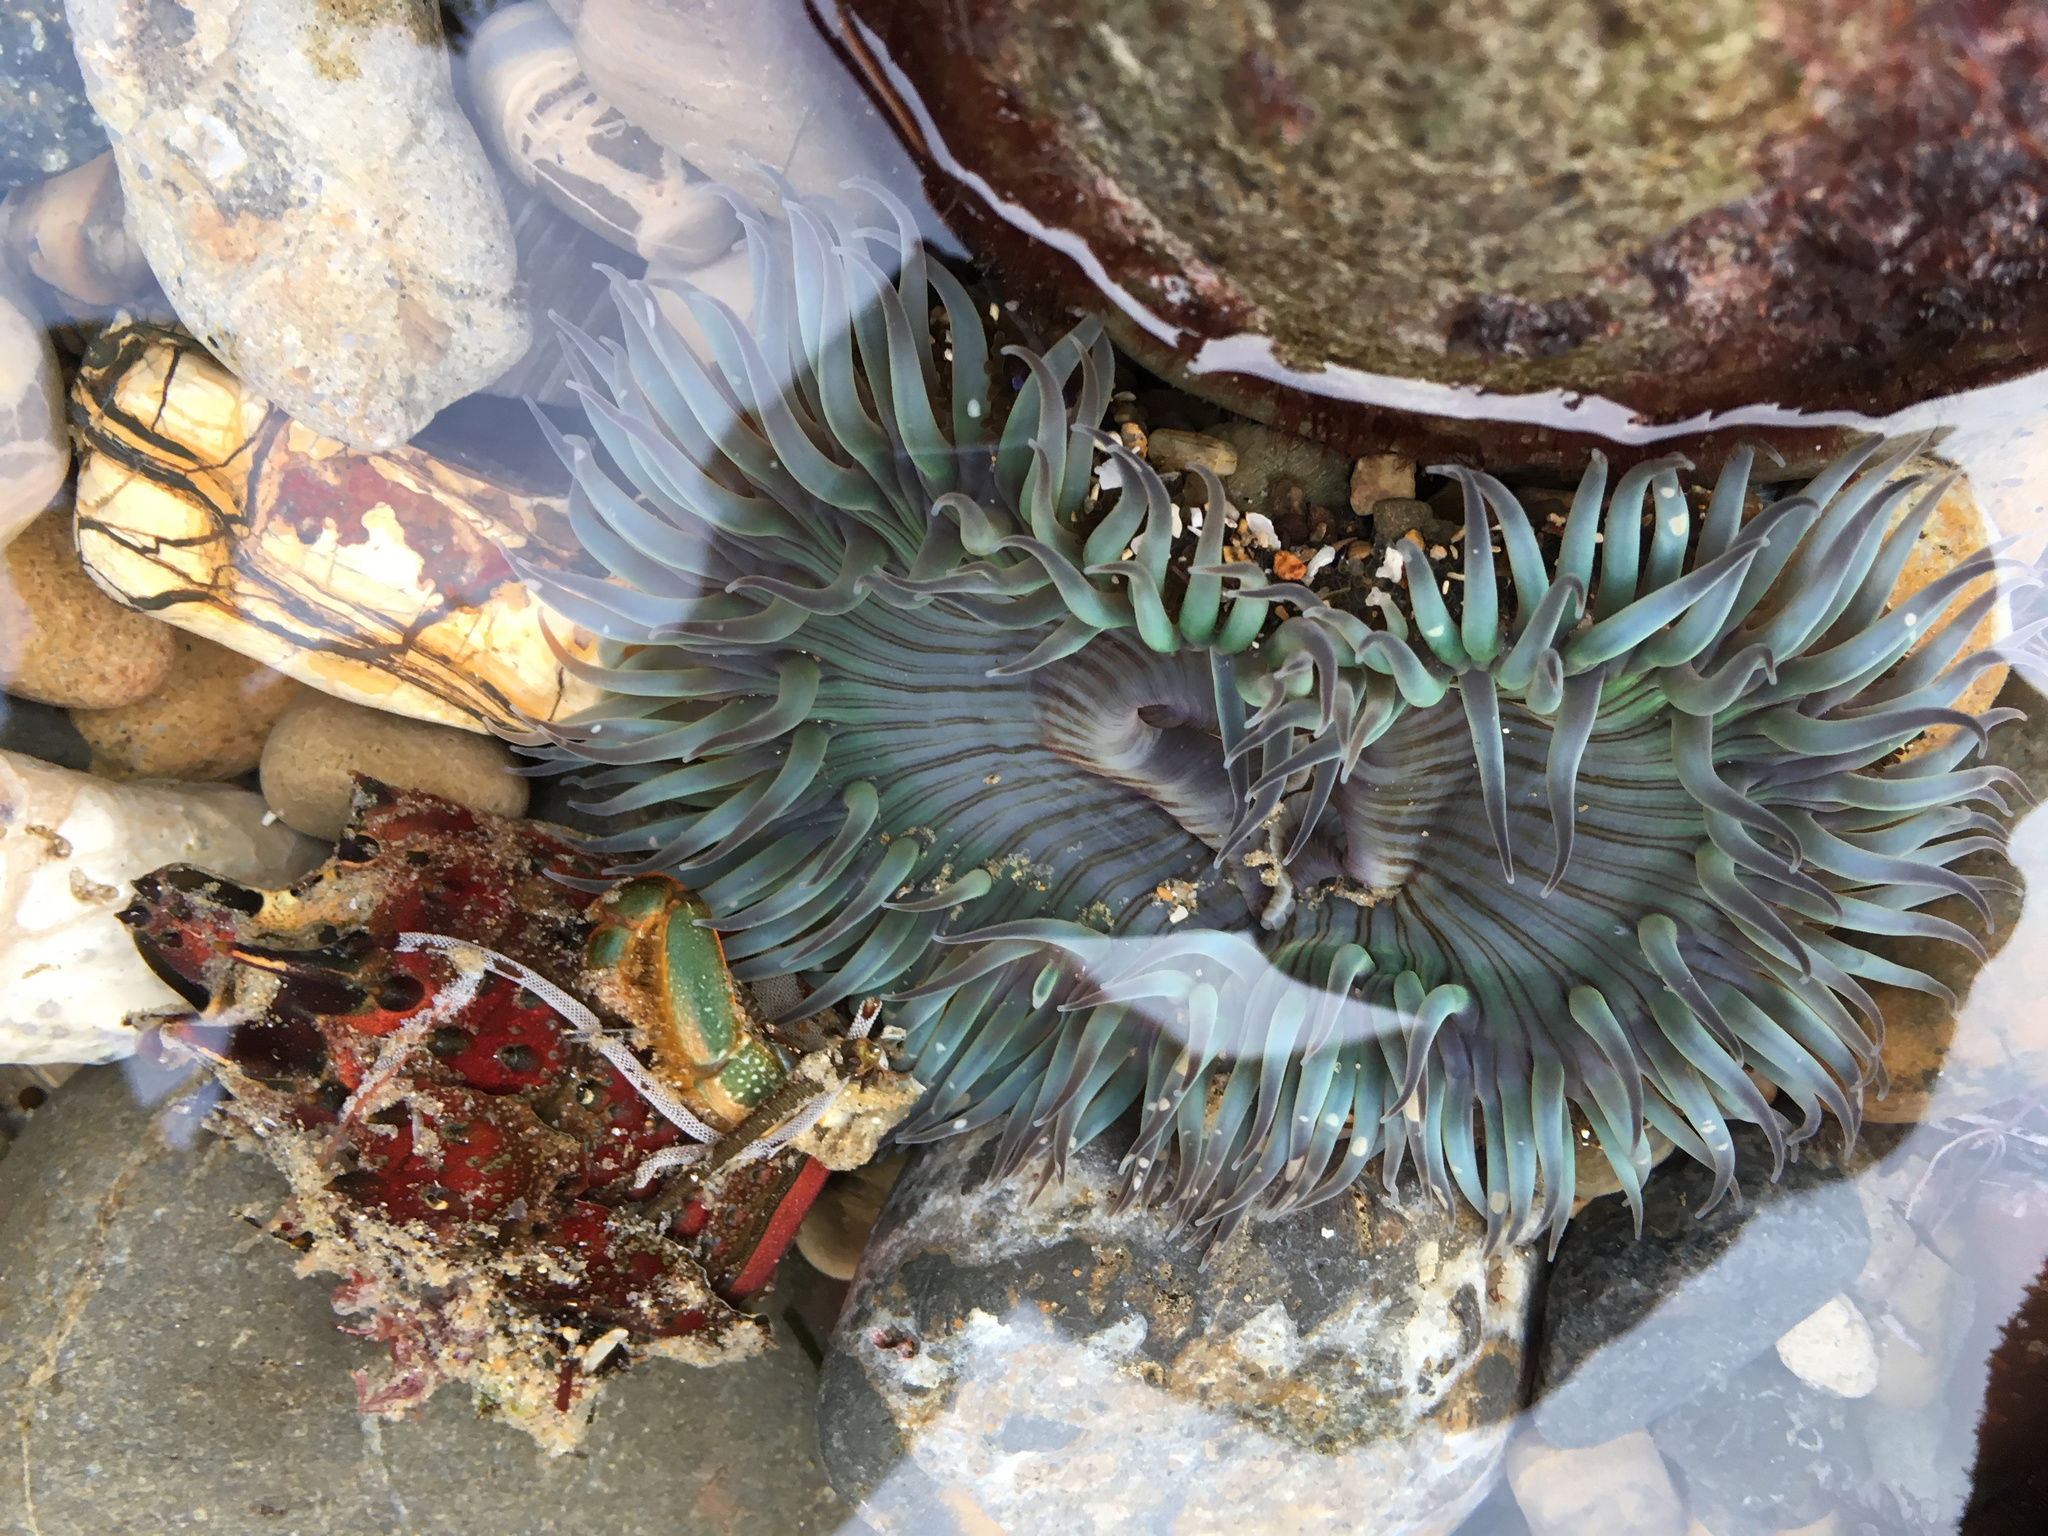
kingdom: Animalia
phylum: Cnidaria
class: Anthozoa
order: Actiniaria
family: Actiniidae
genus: Anthopleura
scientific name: Anthopleura sola
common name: Sun anemone
